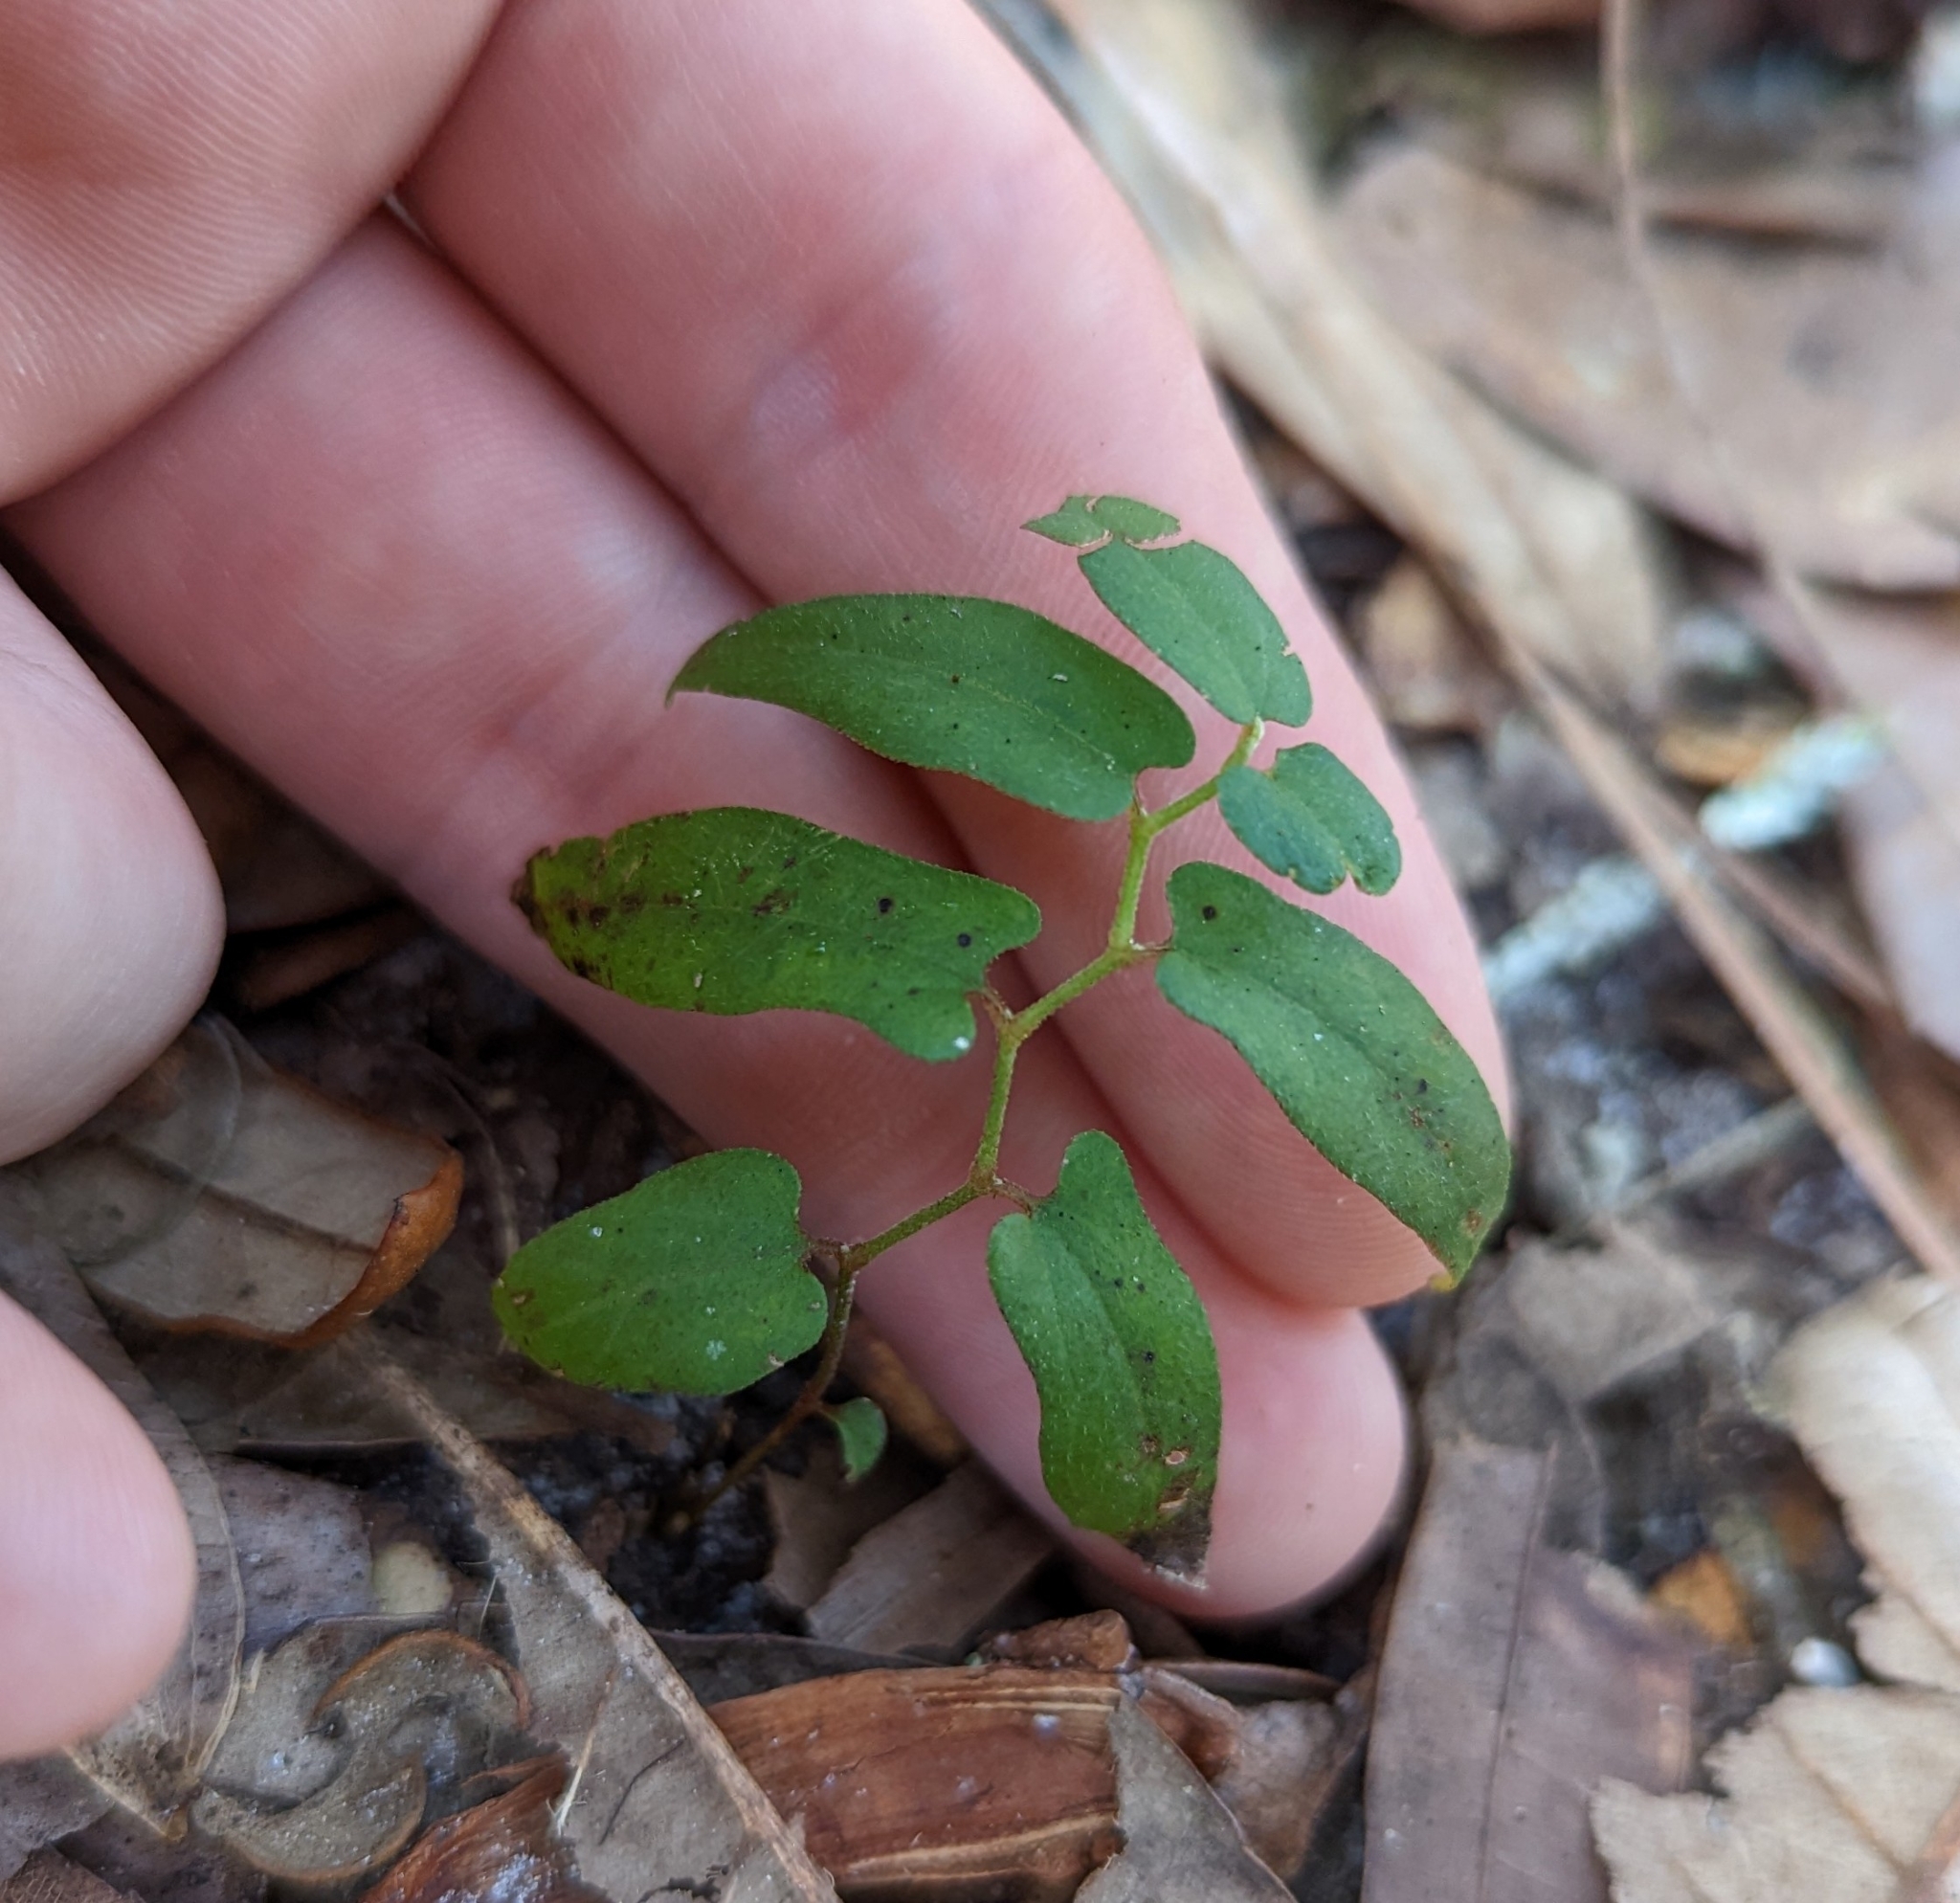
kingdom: Plantae
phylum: Tracheophyta
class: Magnoliopsida
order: Piperales
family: Aristolochiaceae
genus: Endodeca
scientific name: Endodeca serpentaria
